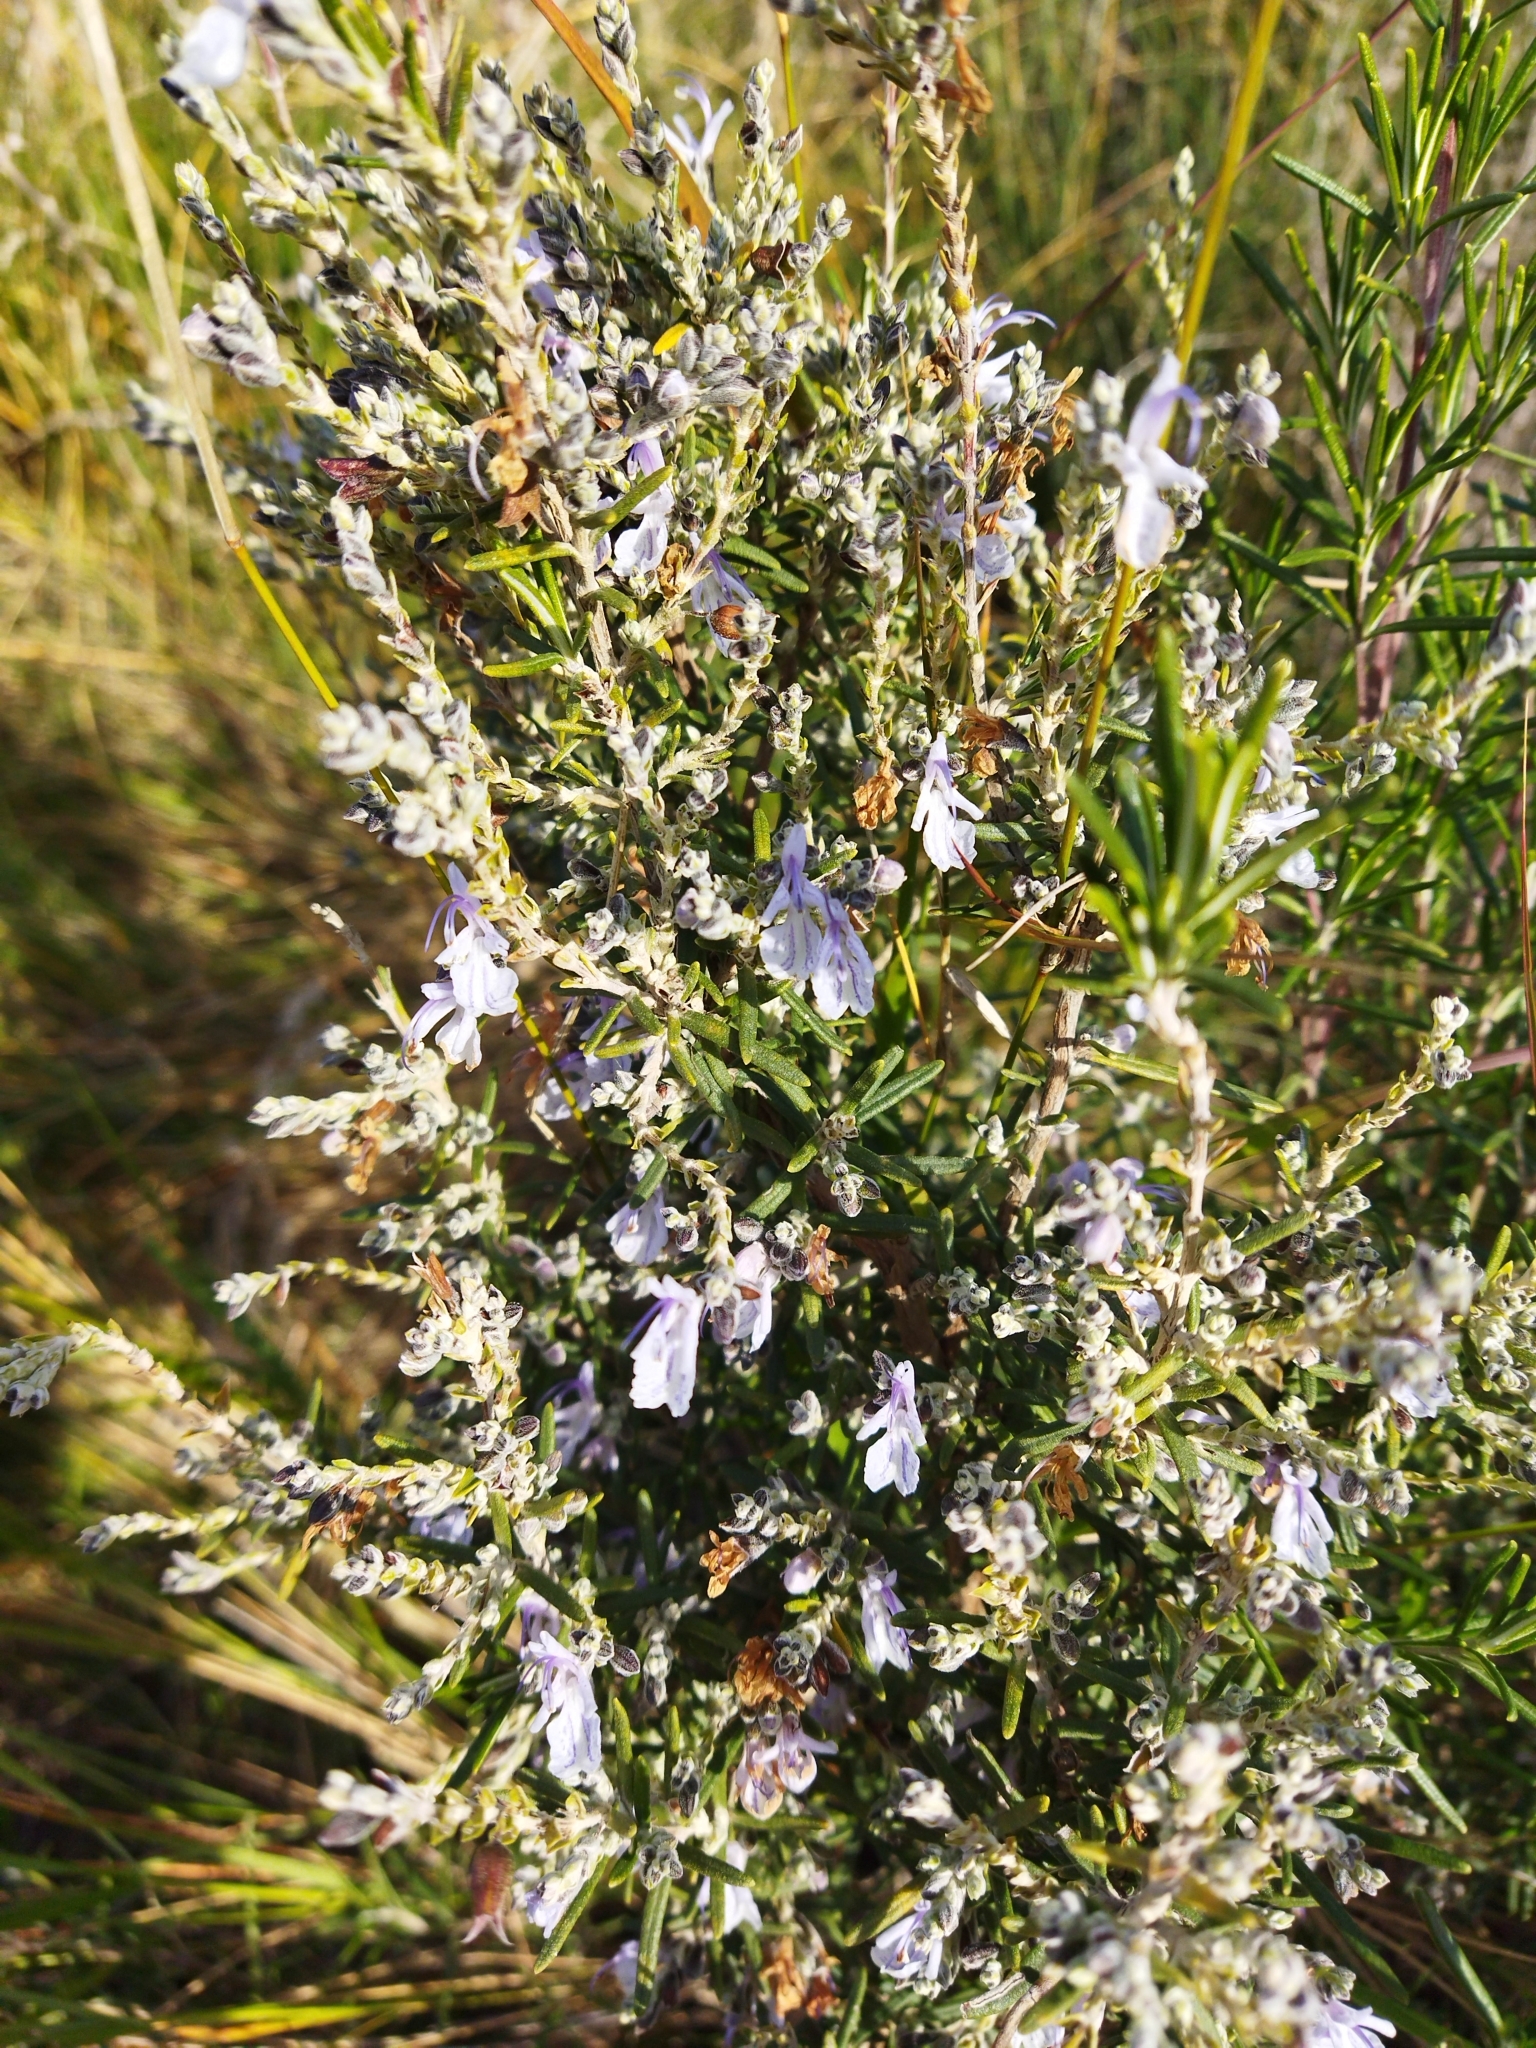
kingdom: Plantae
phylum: Tracheophyta
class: Magnoliopsida
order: Lamiales
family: Lamiaceae
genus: Salvia
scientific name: Salvia rosmarinus
